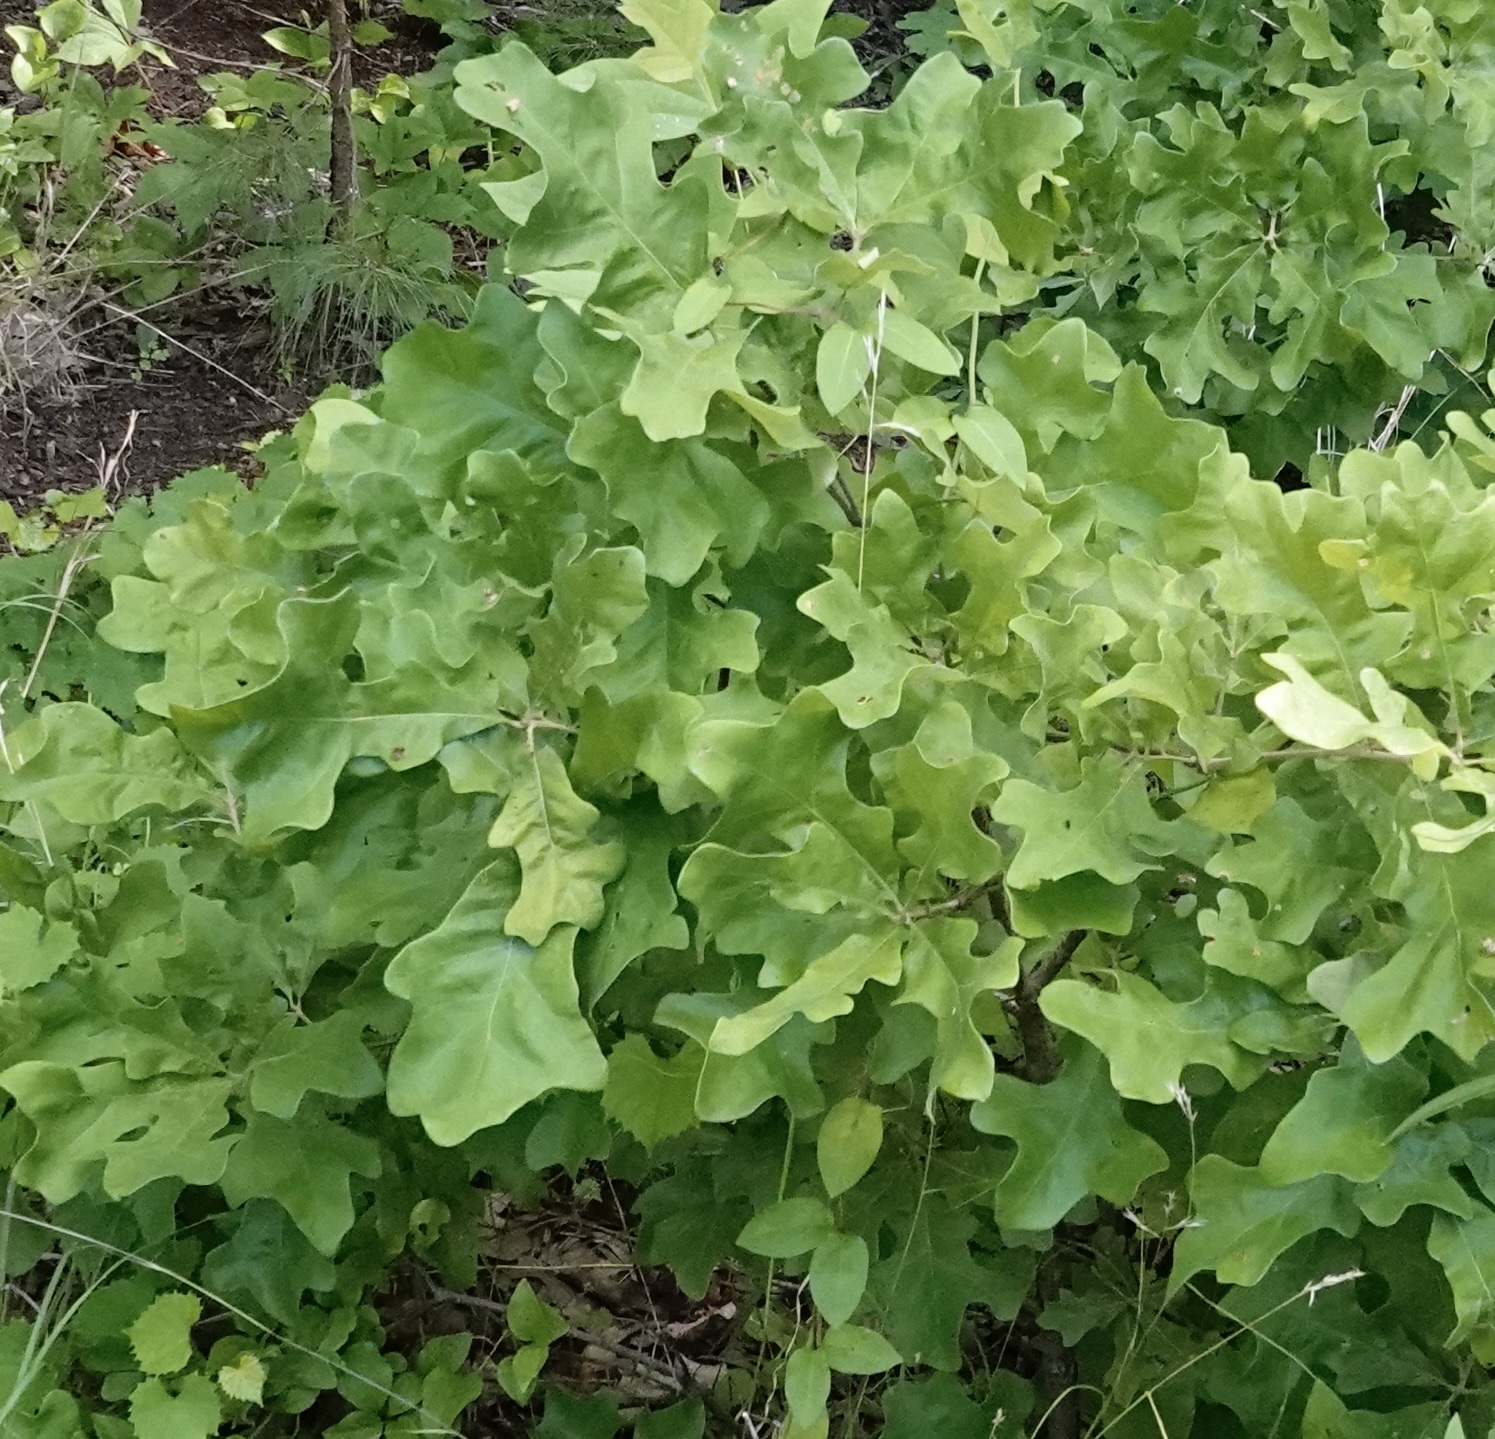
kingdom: Plantae
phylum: Tracheophyta
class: Magnoliopsida
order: Fagales
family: Fagaceae
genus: Quercus
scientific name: Quercus stellata
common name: Post oak
